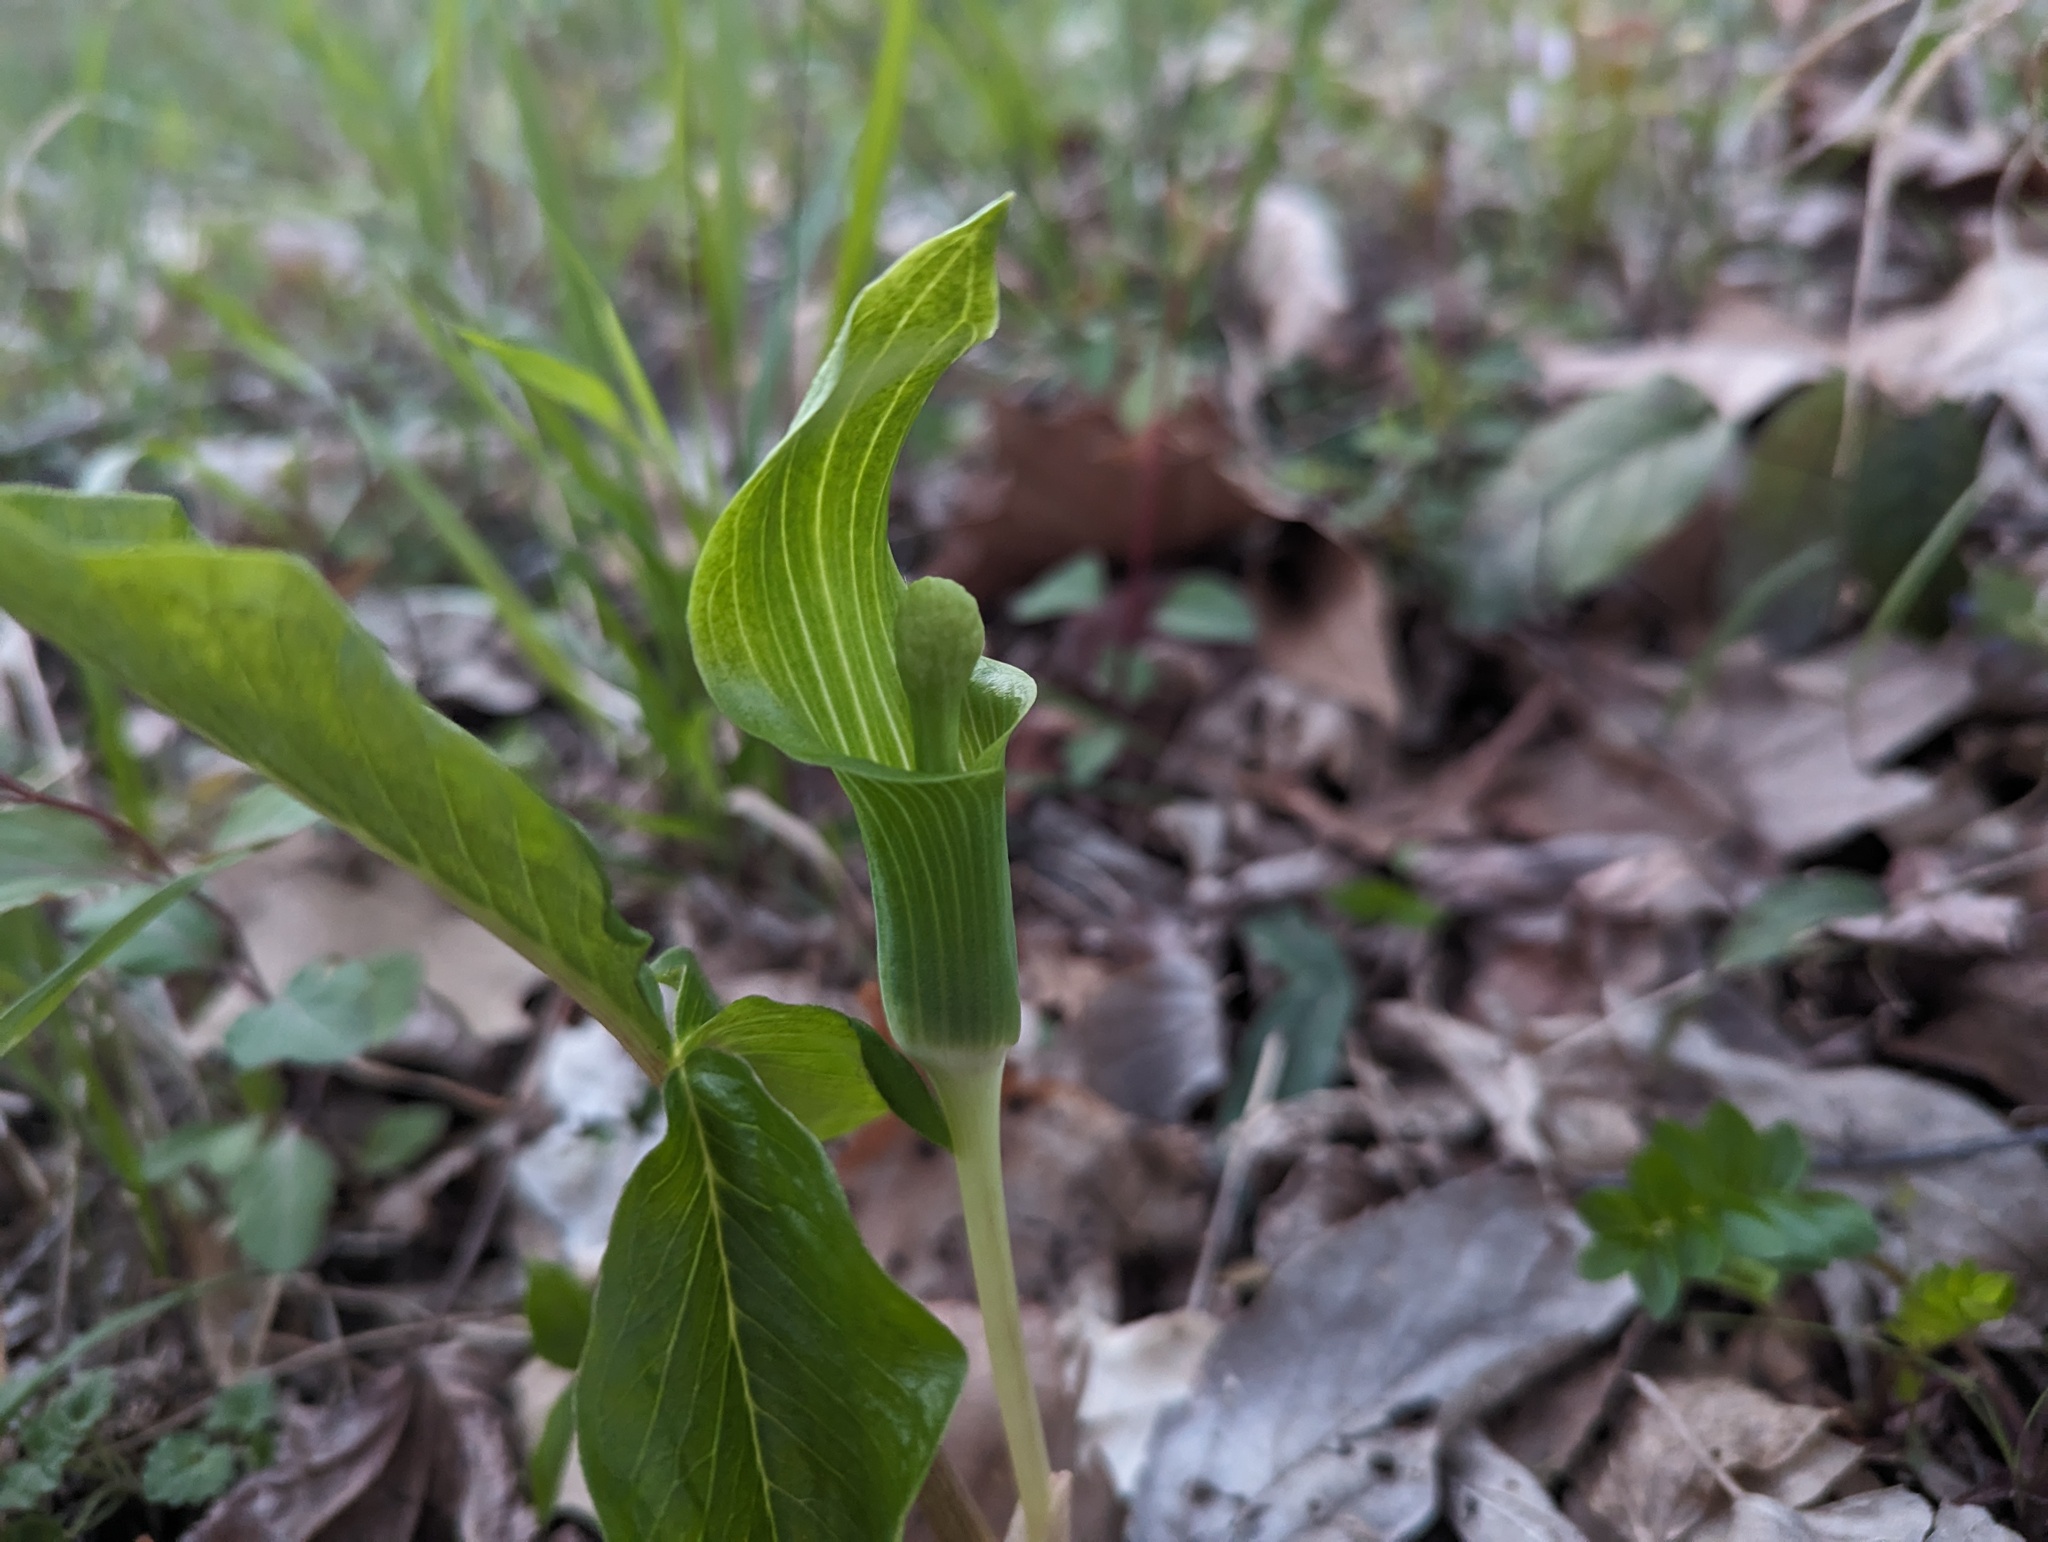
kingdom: Plantae
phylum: Tracheophyta
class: Liliopsida
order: Alismatales
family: Araceae
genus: Arisaema
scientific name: Arisaema triphyllum
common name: Jack-in-the-pulpit
